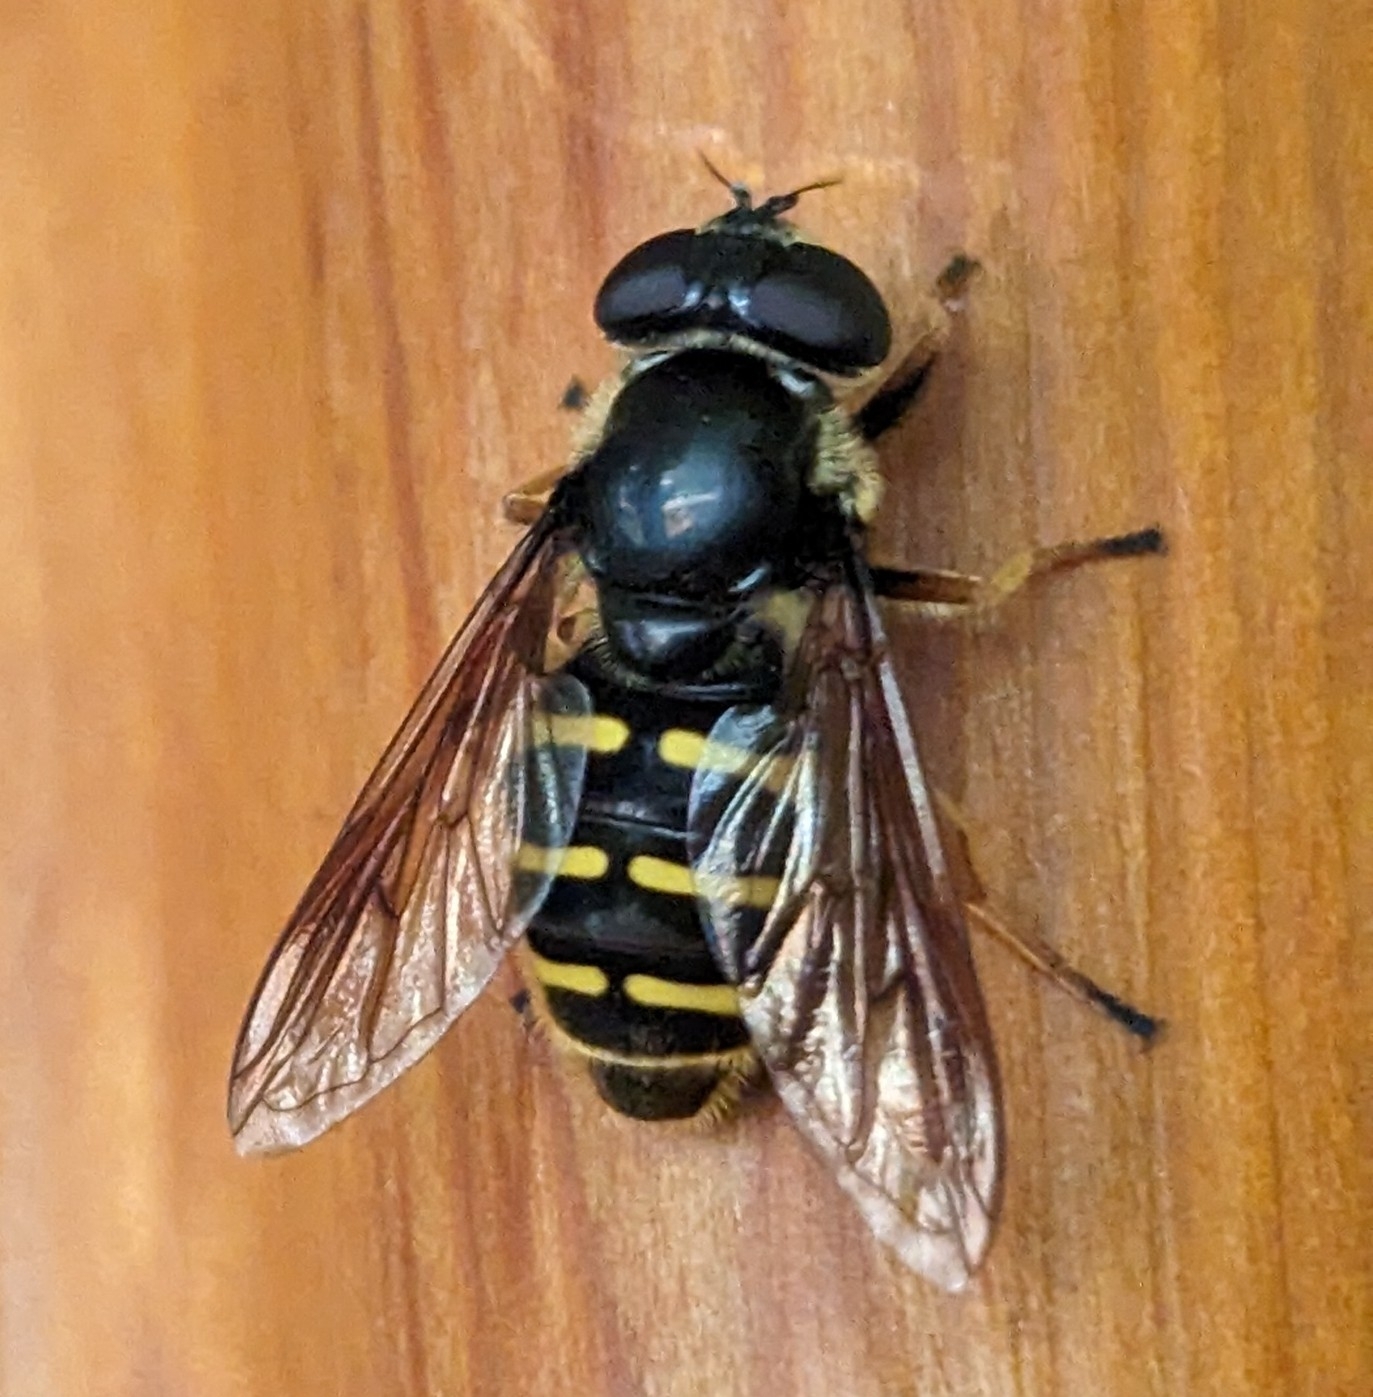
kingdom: Animalia
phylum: Arthropoda
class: Insecta
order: Diptera
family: Syrphidae
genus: Sericomyia
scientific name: Sericomyia chalcopyga
